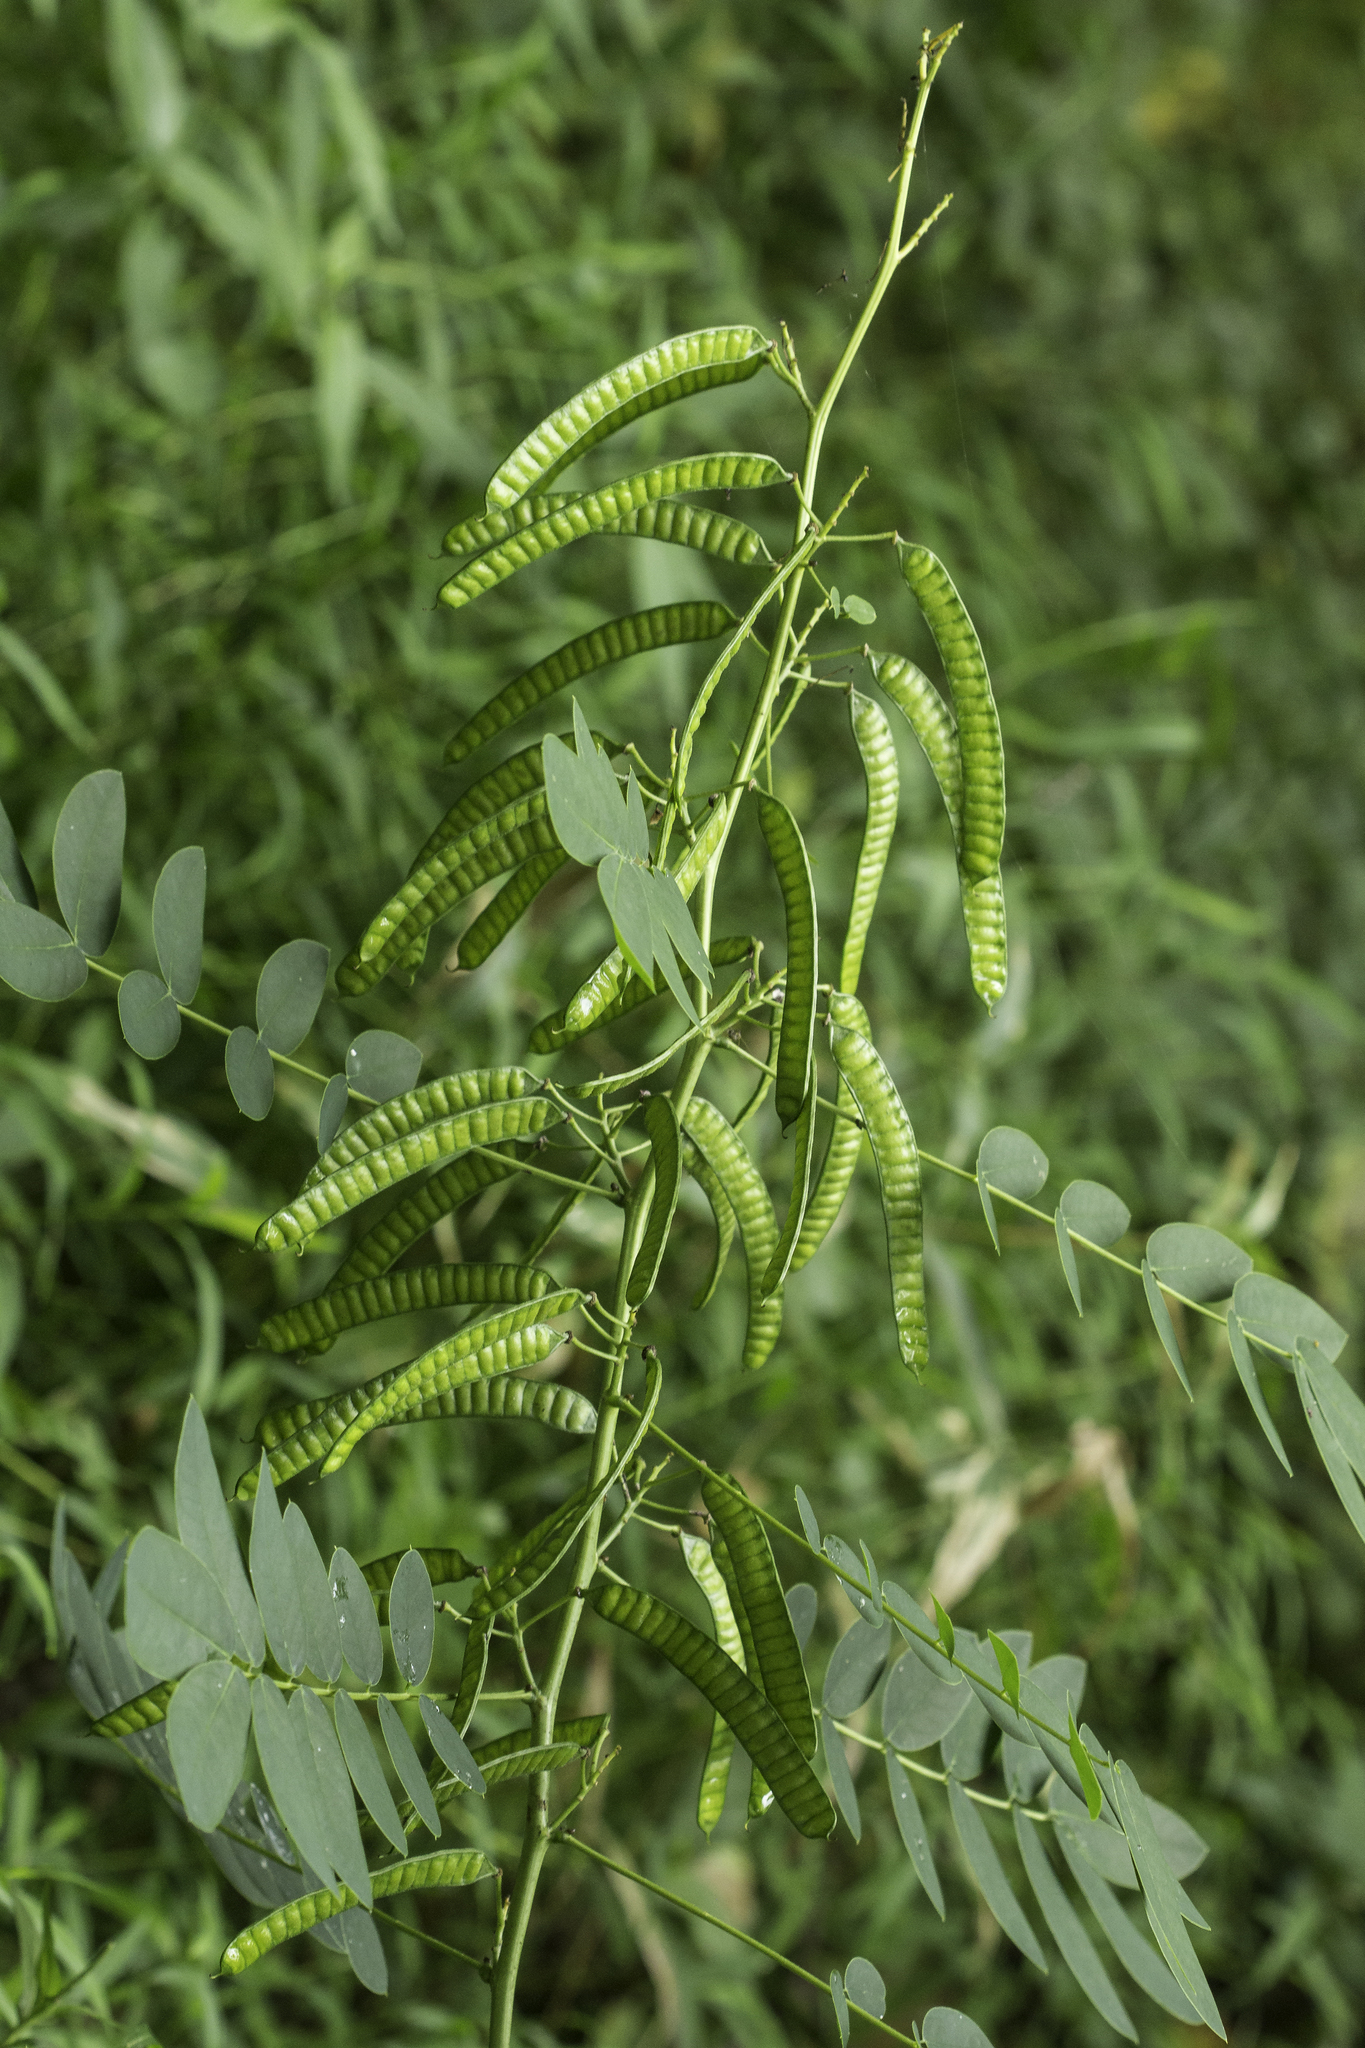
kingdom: Plantae
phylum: Tracheophyta
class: Magnoliopsida
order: Fabales
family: Fabaceae
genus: Senna
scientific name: Senna marilandica
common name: American senna
